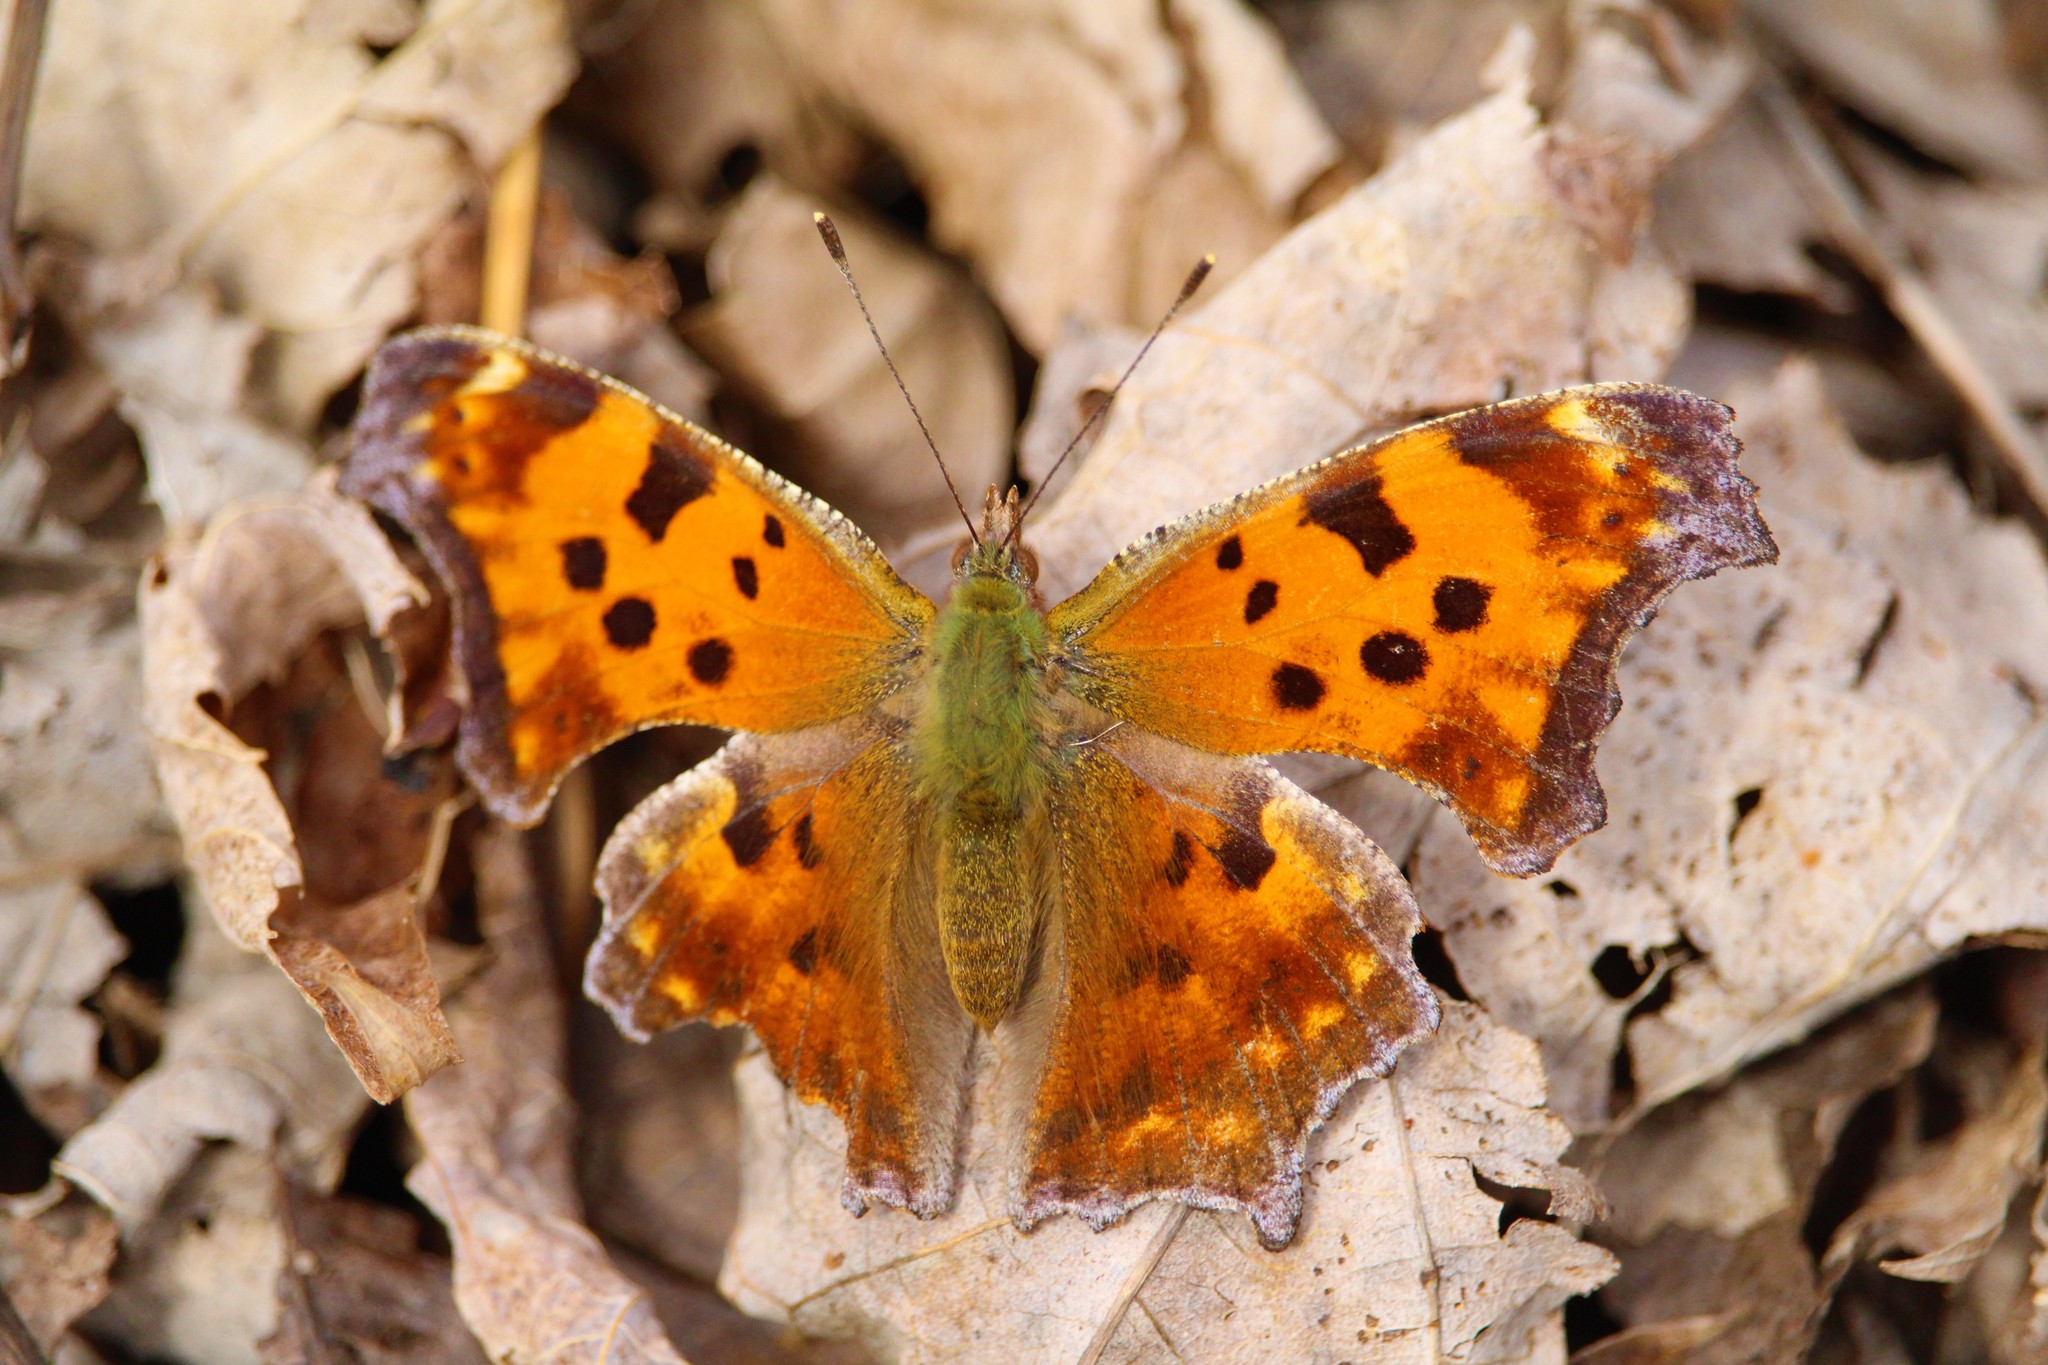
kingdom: Animalia
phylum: Arthropoda
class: Insecta
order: Lepidoptera
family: Nymphalidae
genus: Polygonia
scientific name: Polygonia comma
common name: Eastern comma
